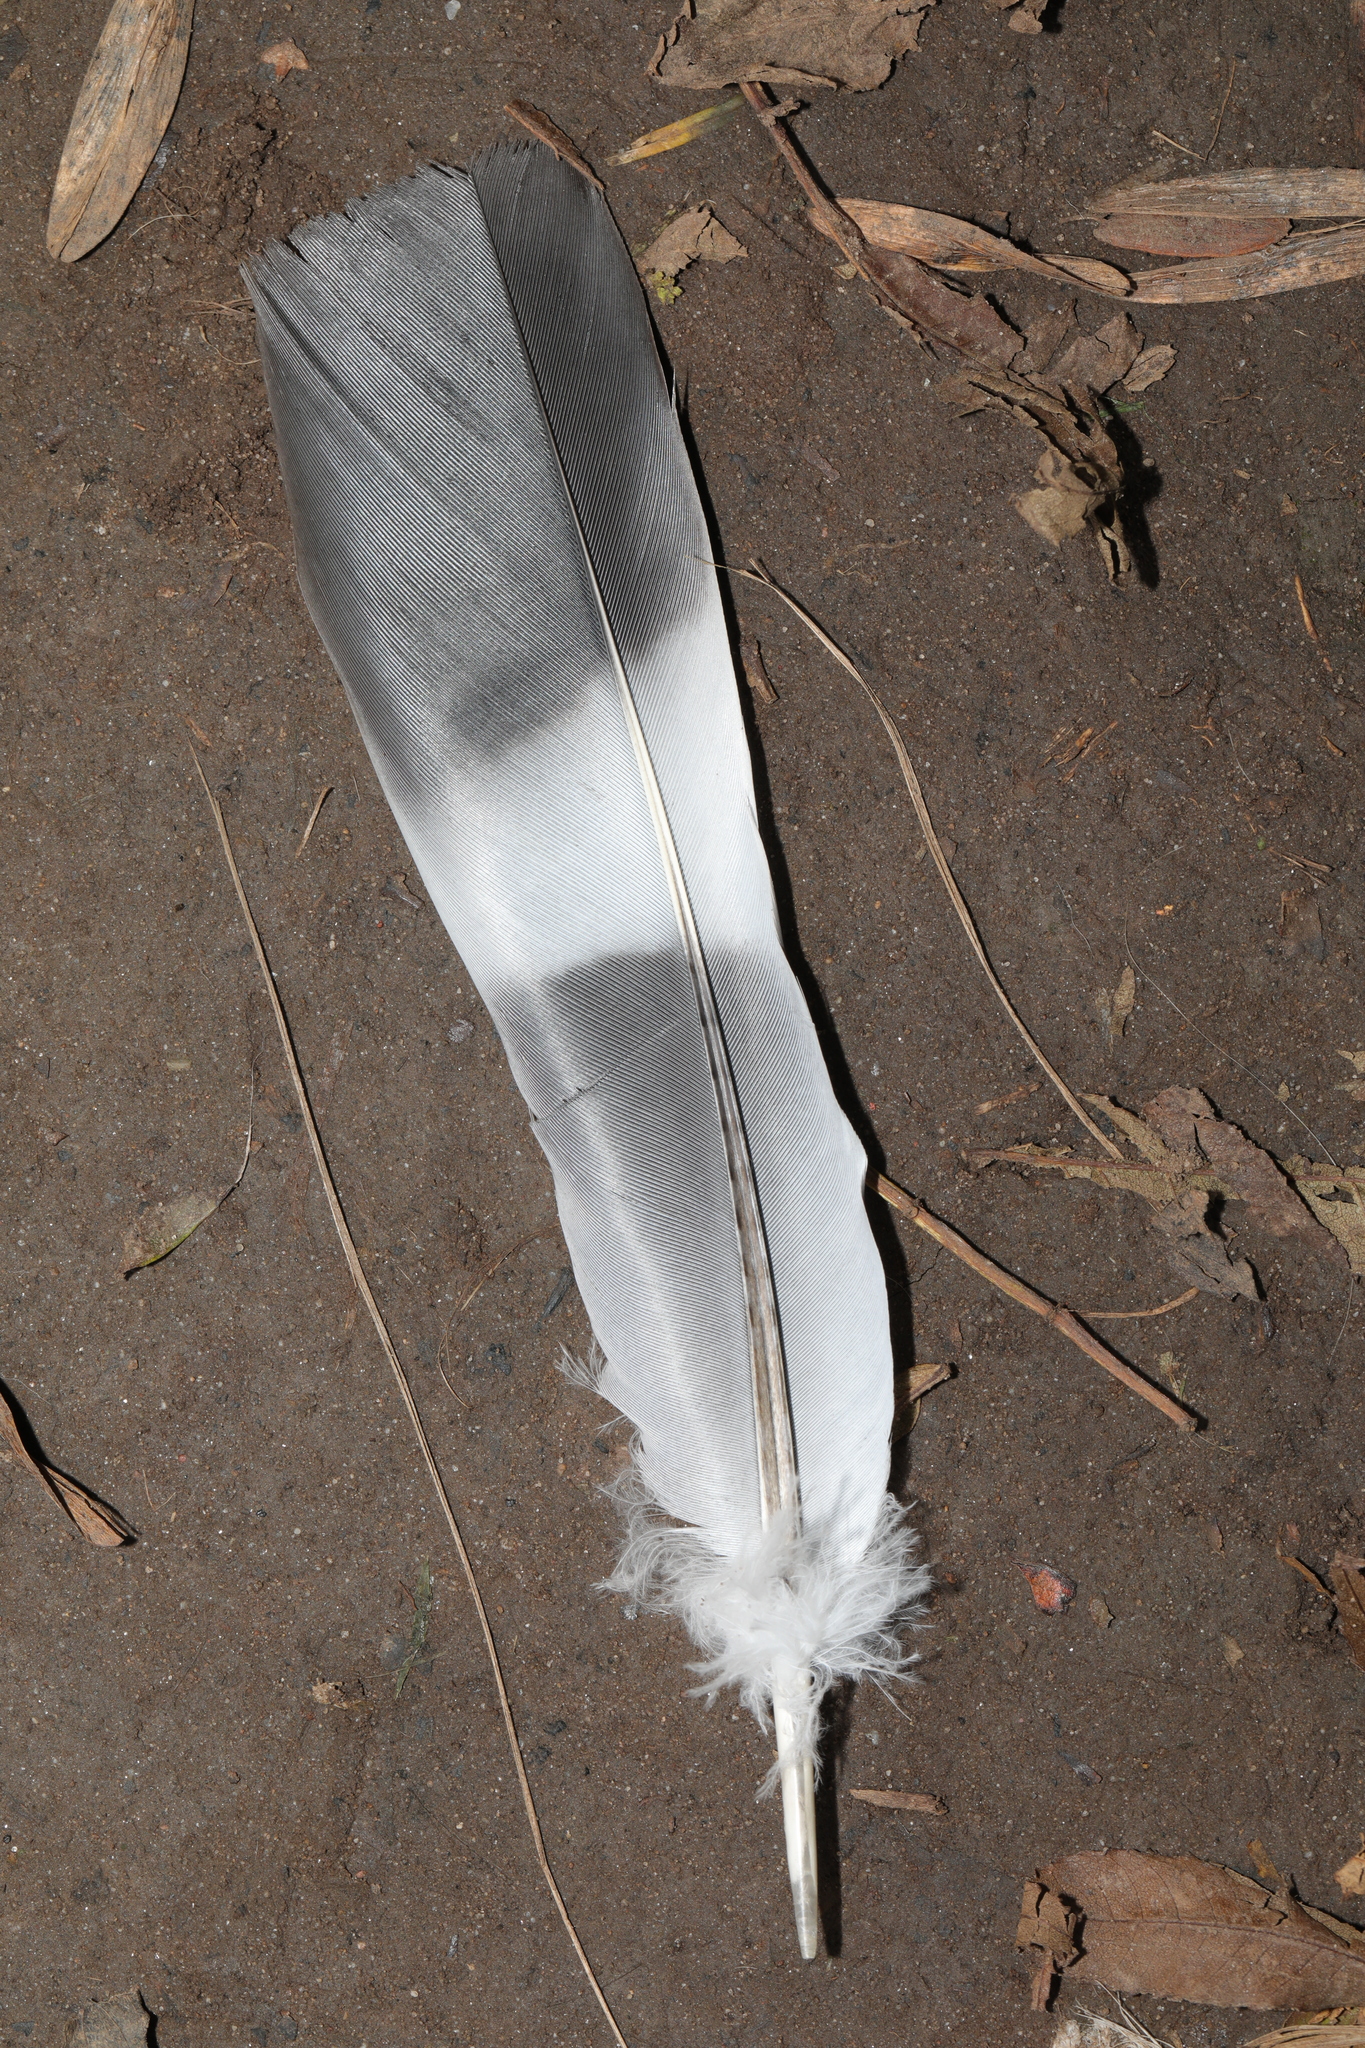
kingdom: Animalia
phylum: Chordata
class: Aves
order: Columbiformes
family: Columbidae
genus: Columba
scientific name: Columba palumbus
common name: Common wood pigeon
